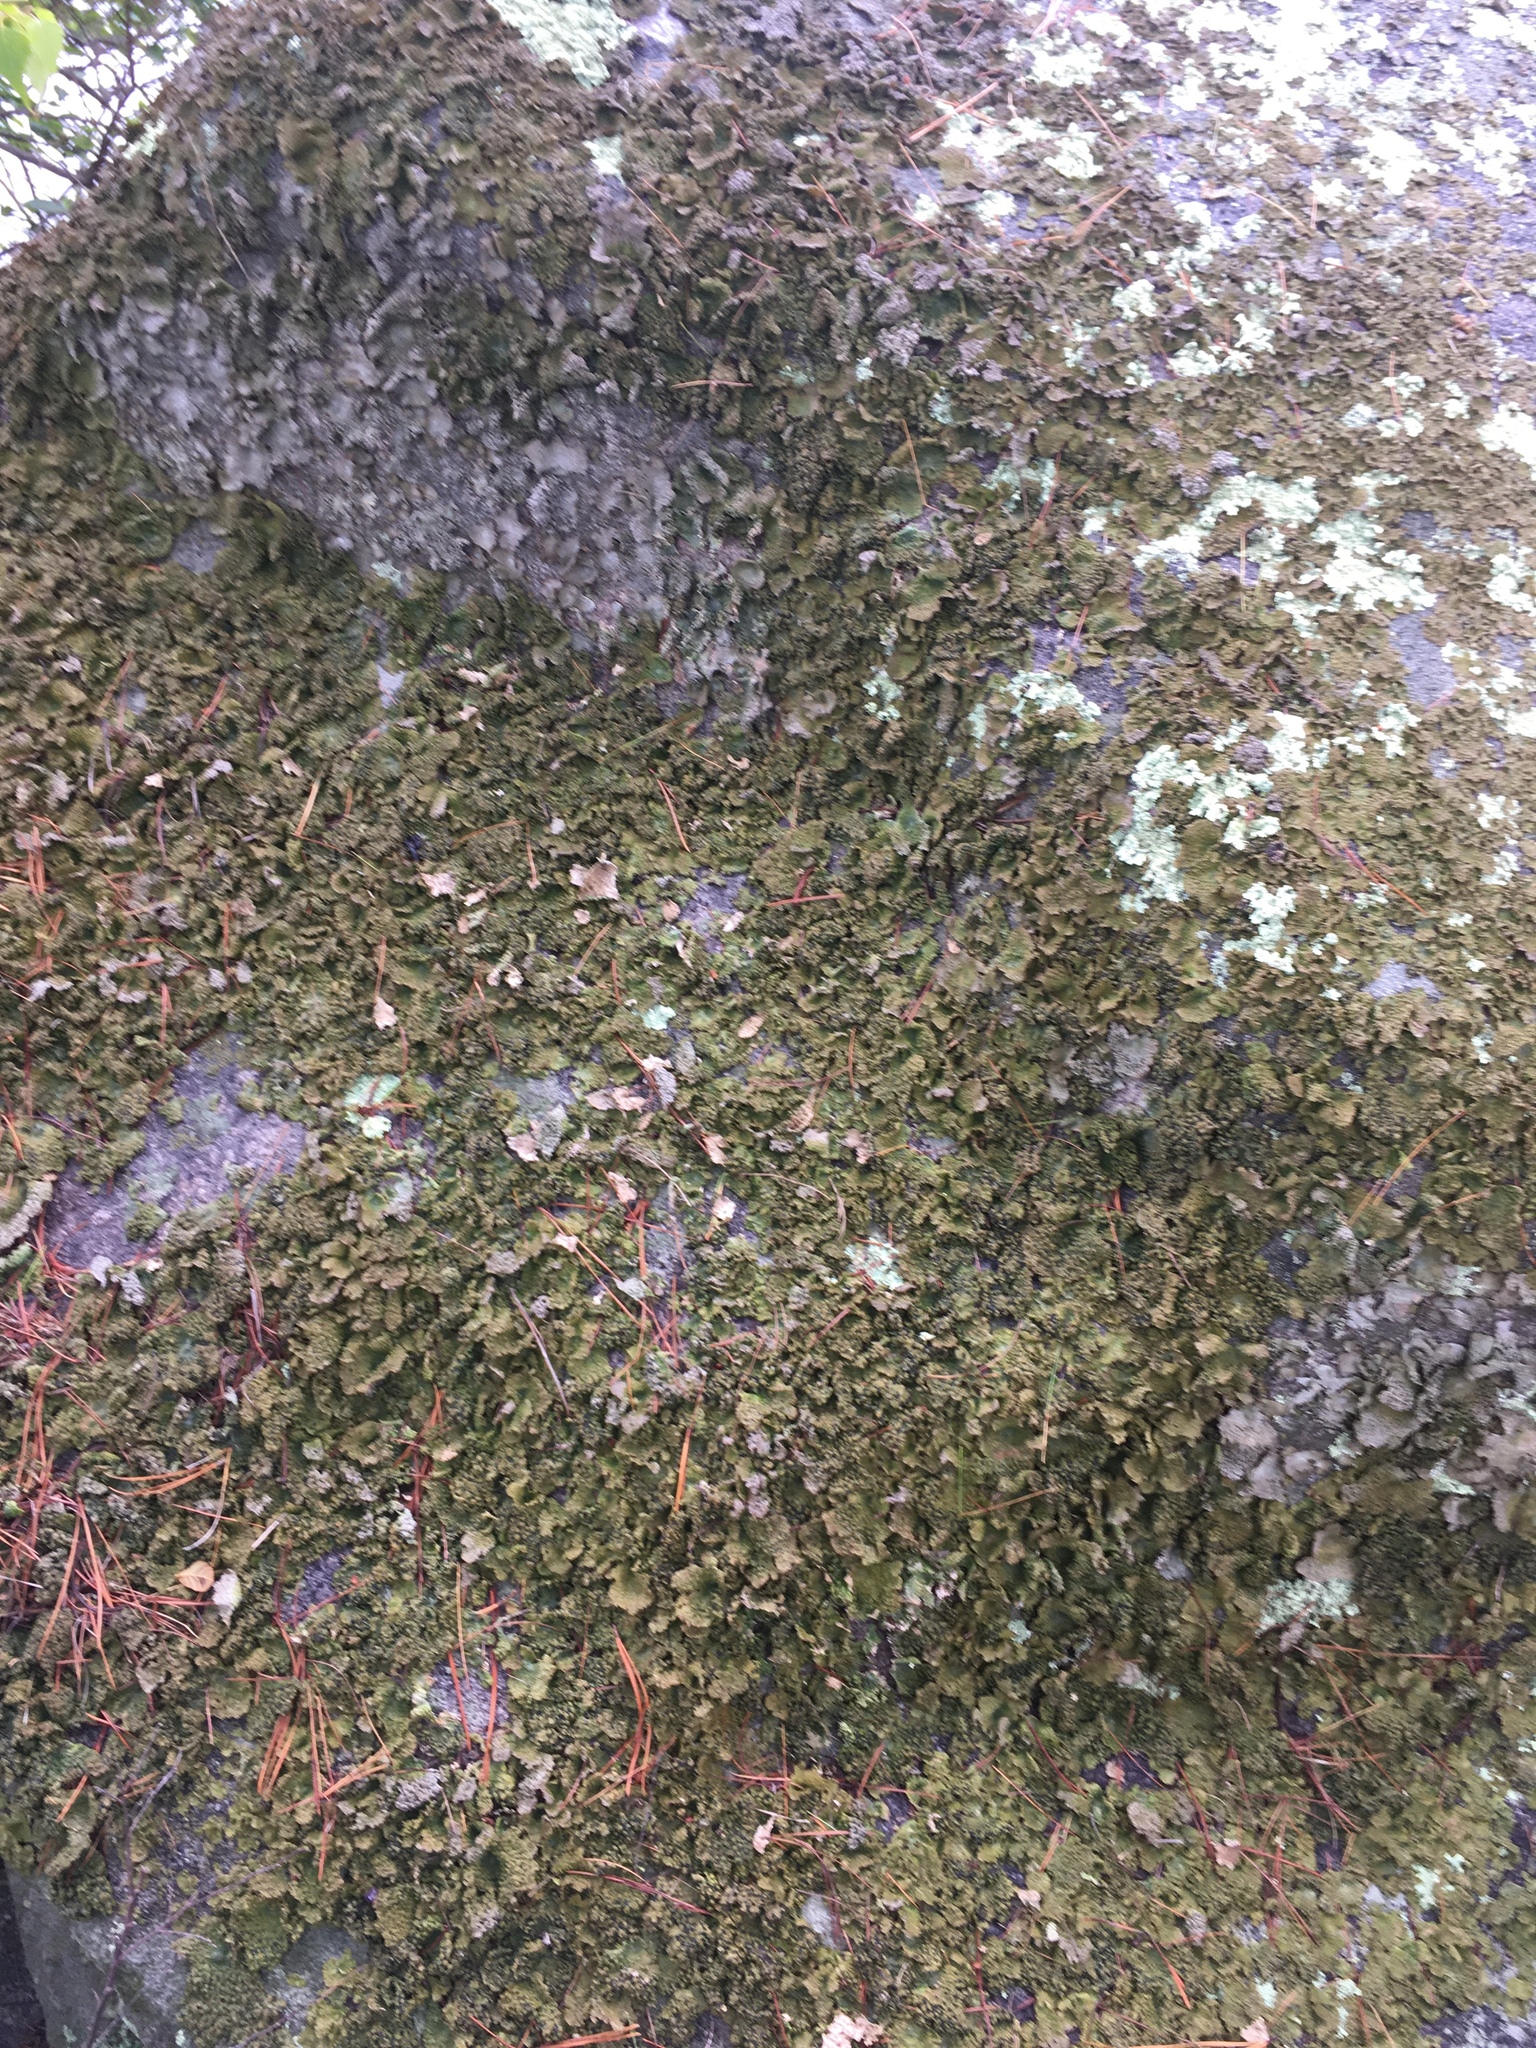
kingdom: Fungi
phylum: Ascomycota
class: Lecanoromycetes
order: Umbilicariales
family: Umbilicariaceae
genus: Lasallia
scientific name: Lasallia papulosa
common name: Common toadskin lichen
